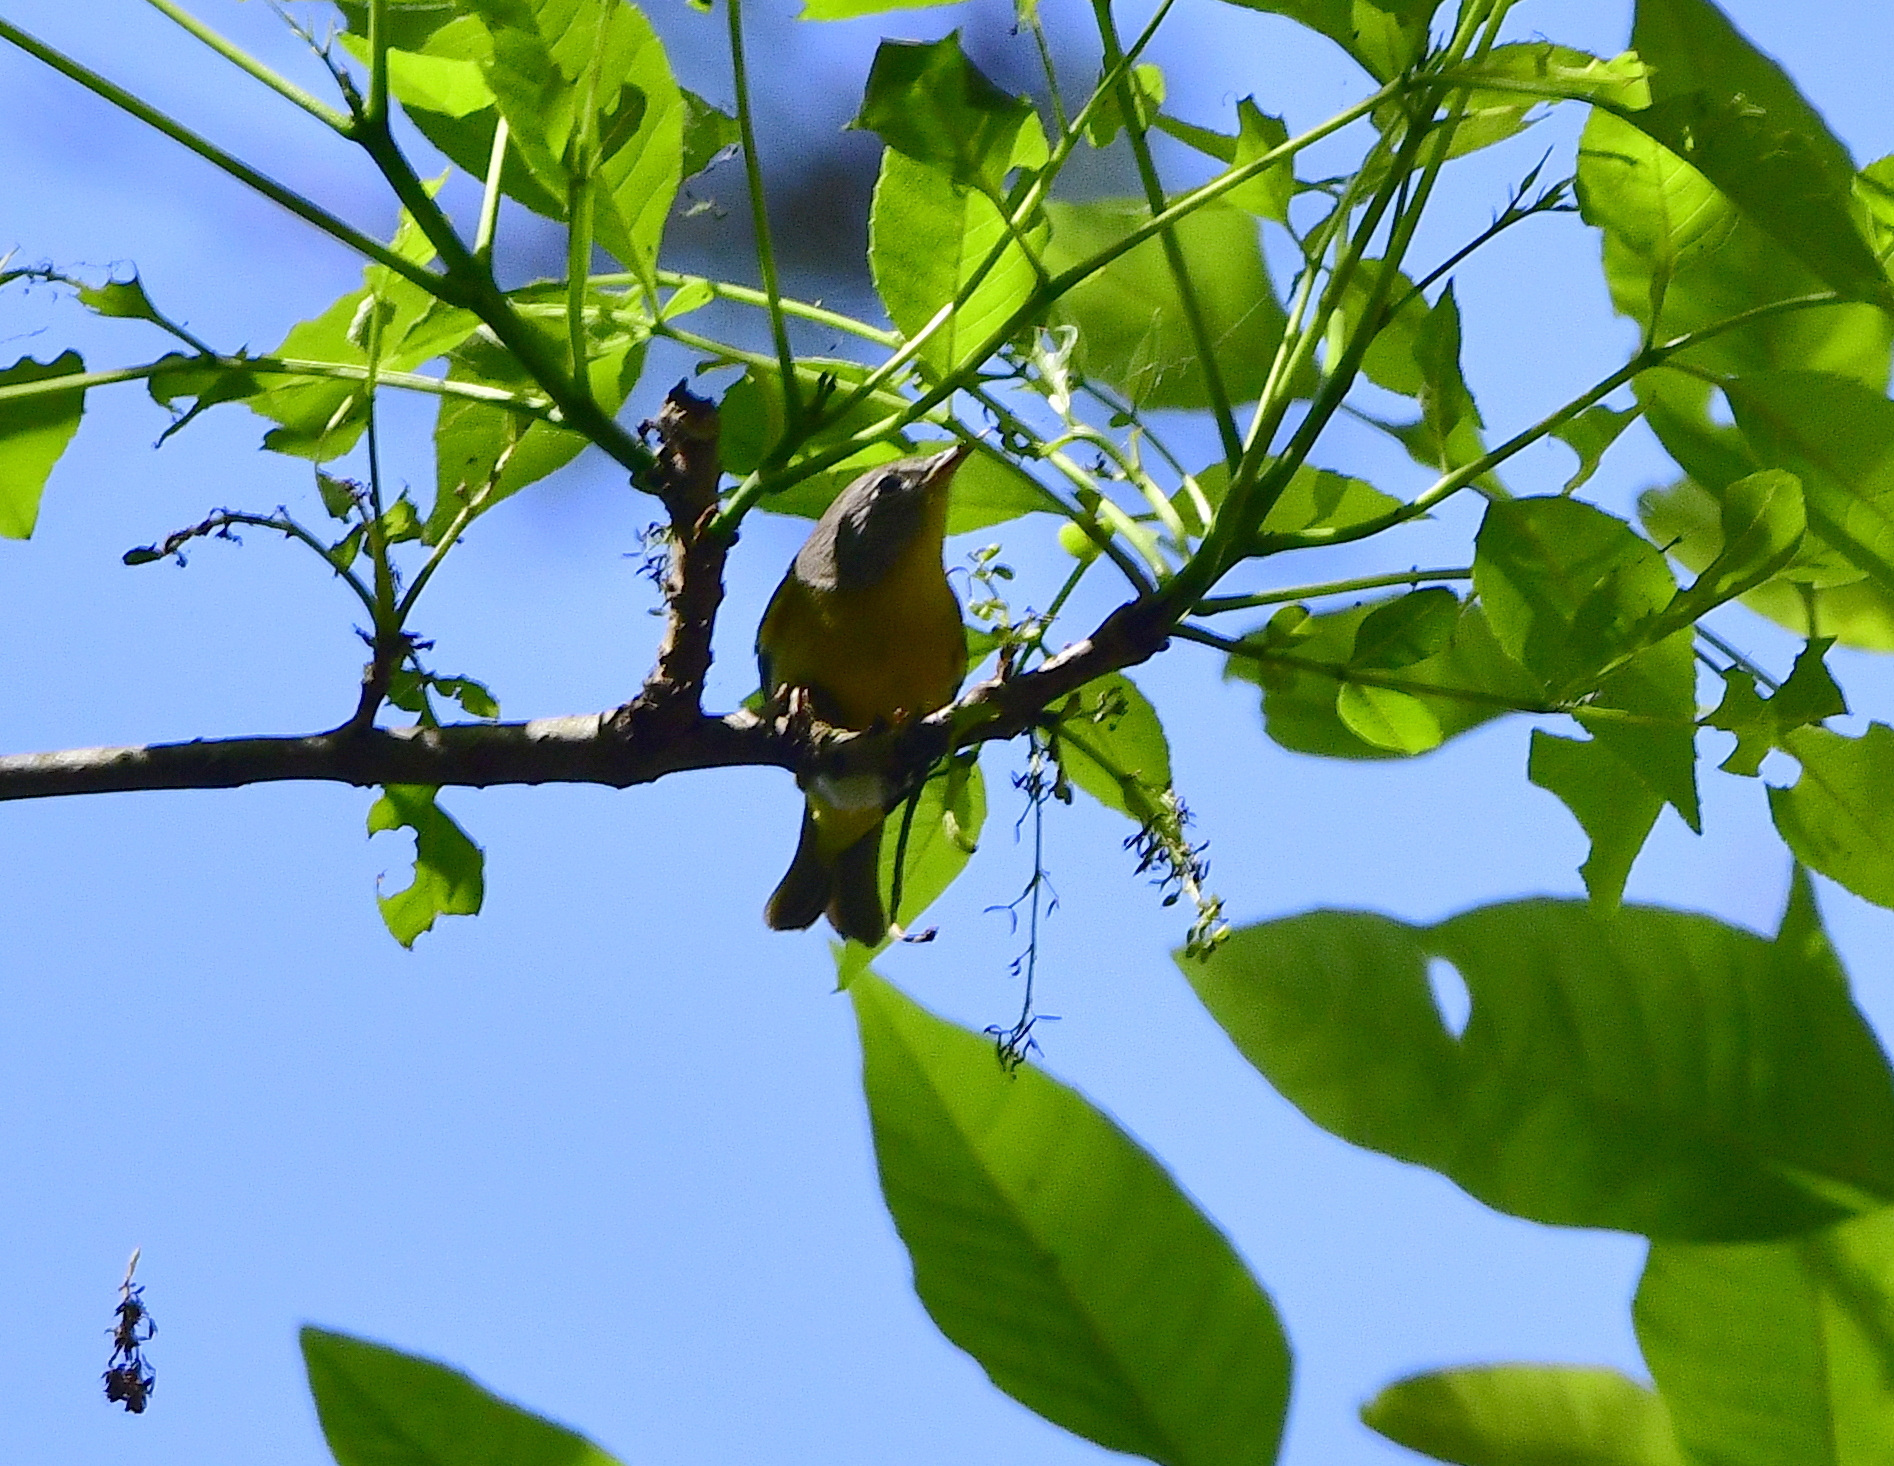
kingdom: Animalia
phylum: Chordata
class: Aves
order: Passeriformes
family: Parulidae
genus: Leiothlypis
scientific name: Leiothlypis ruficapilla
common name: Nashville warbler
